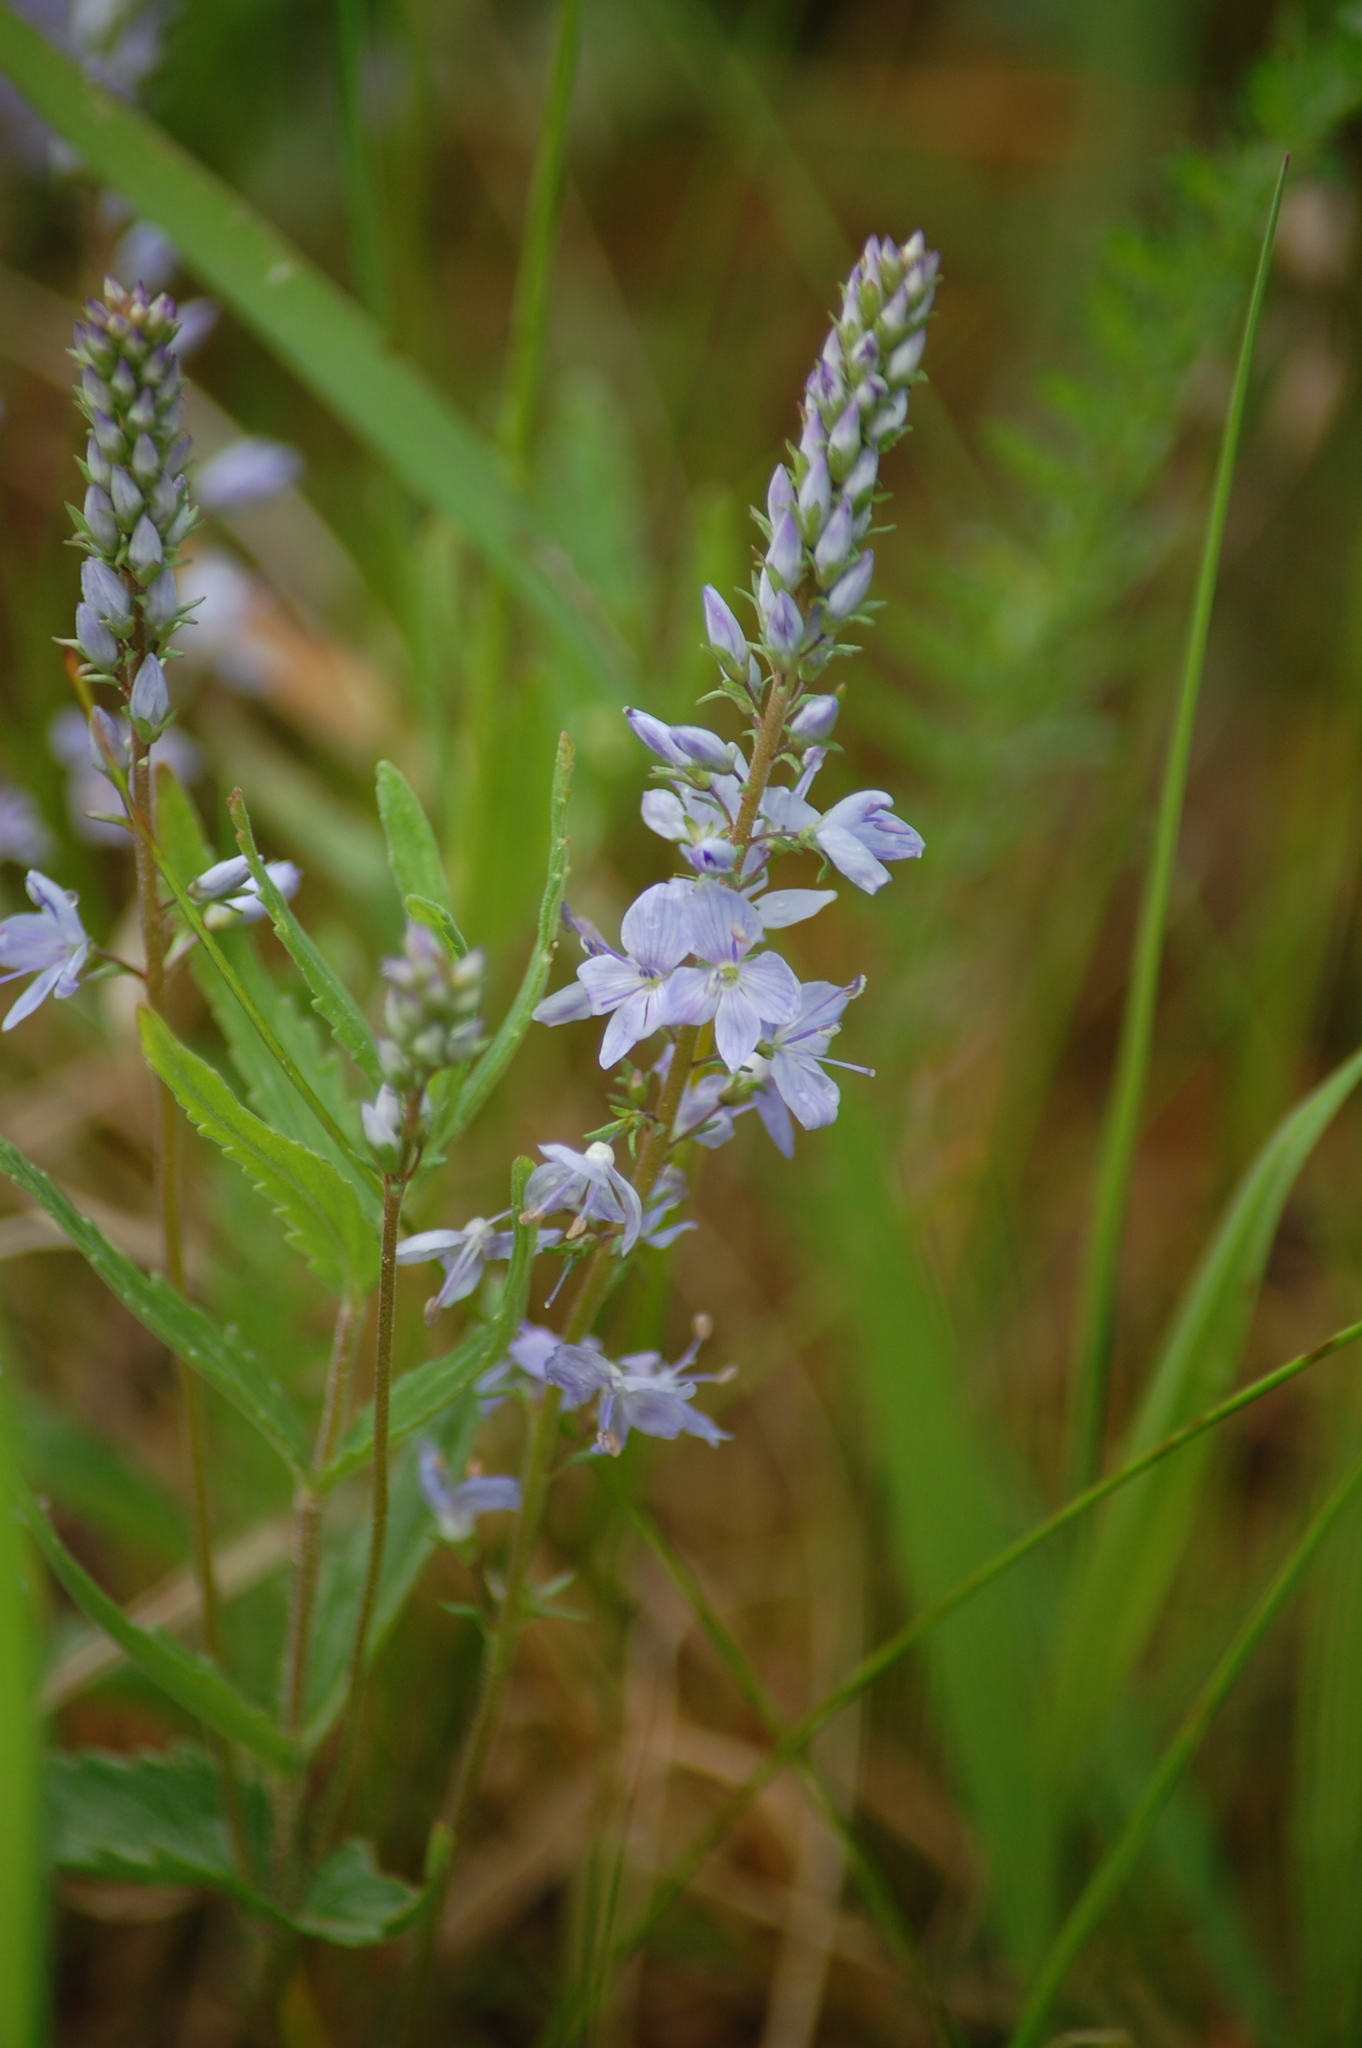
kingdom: Plantae
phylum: Tracheophyta
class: Magnoliopsida
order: Lamiales
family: Plantaginaceae
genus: Veronica
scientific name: Veronica prostrata
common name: Prostrate speedwell
